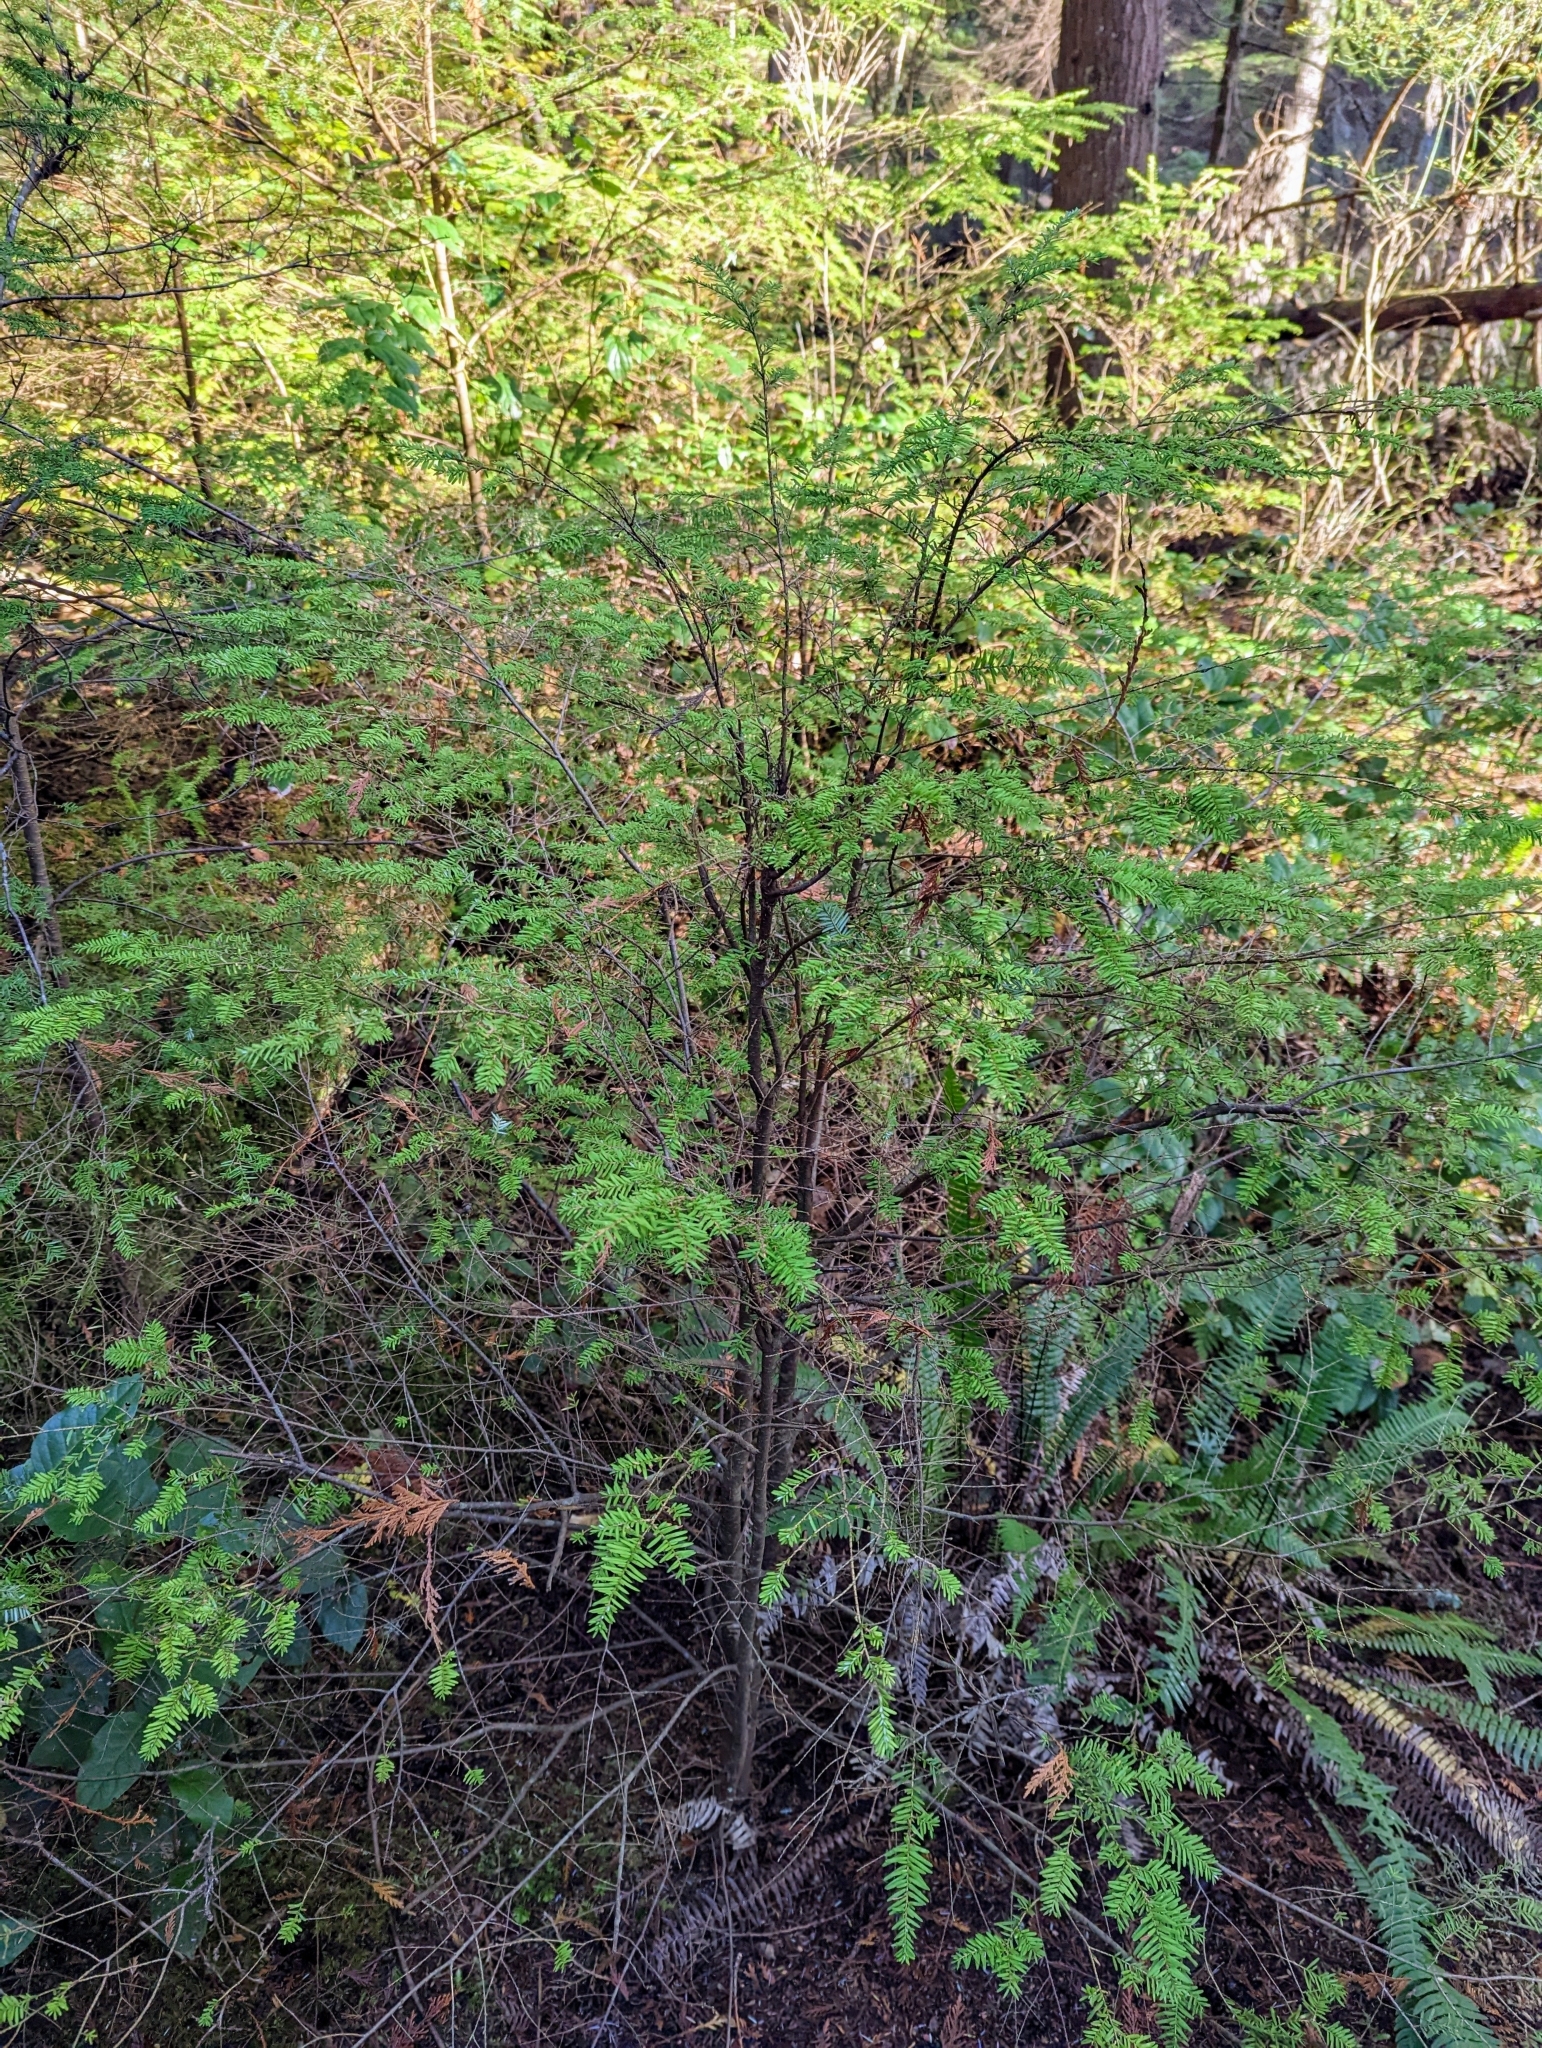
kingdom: Plantae
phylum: Tracheophyta
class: Pinopsida
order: Pinales
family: Pinaceae
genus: Tsuga
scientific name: Tsuga heterophylla
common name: Western hemlock
